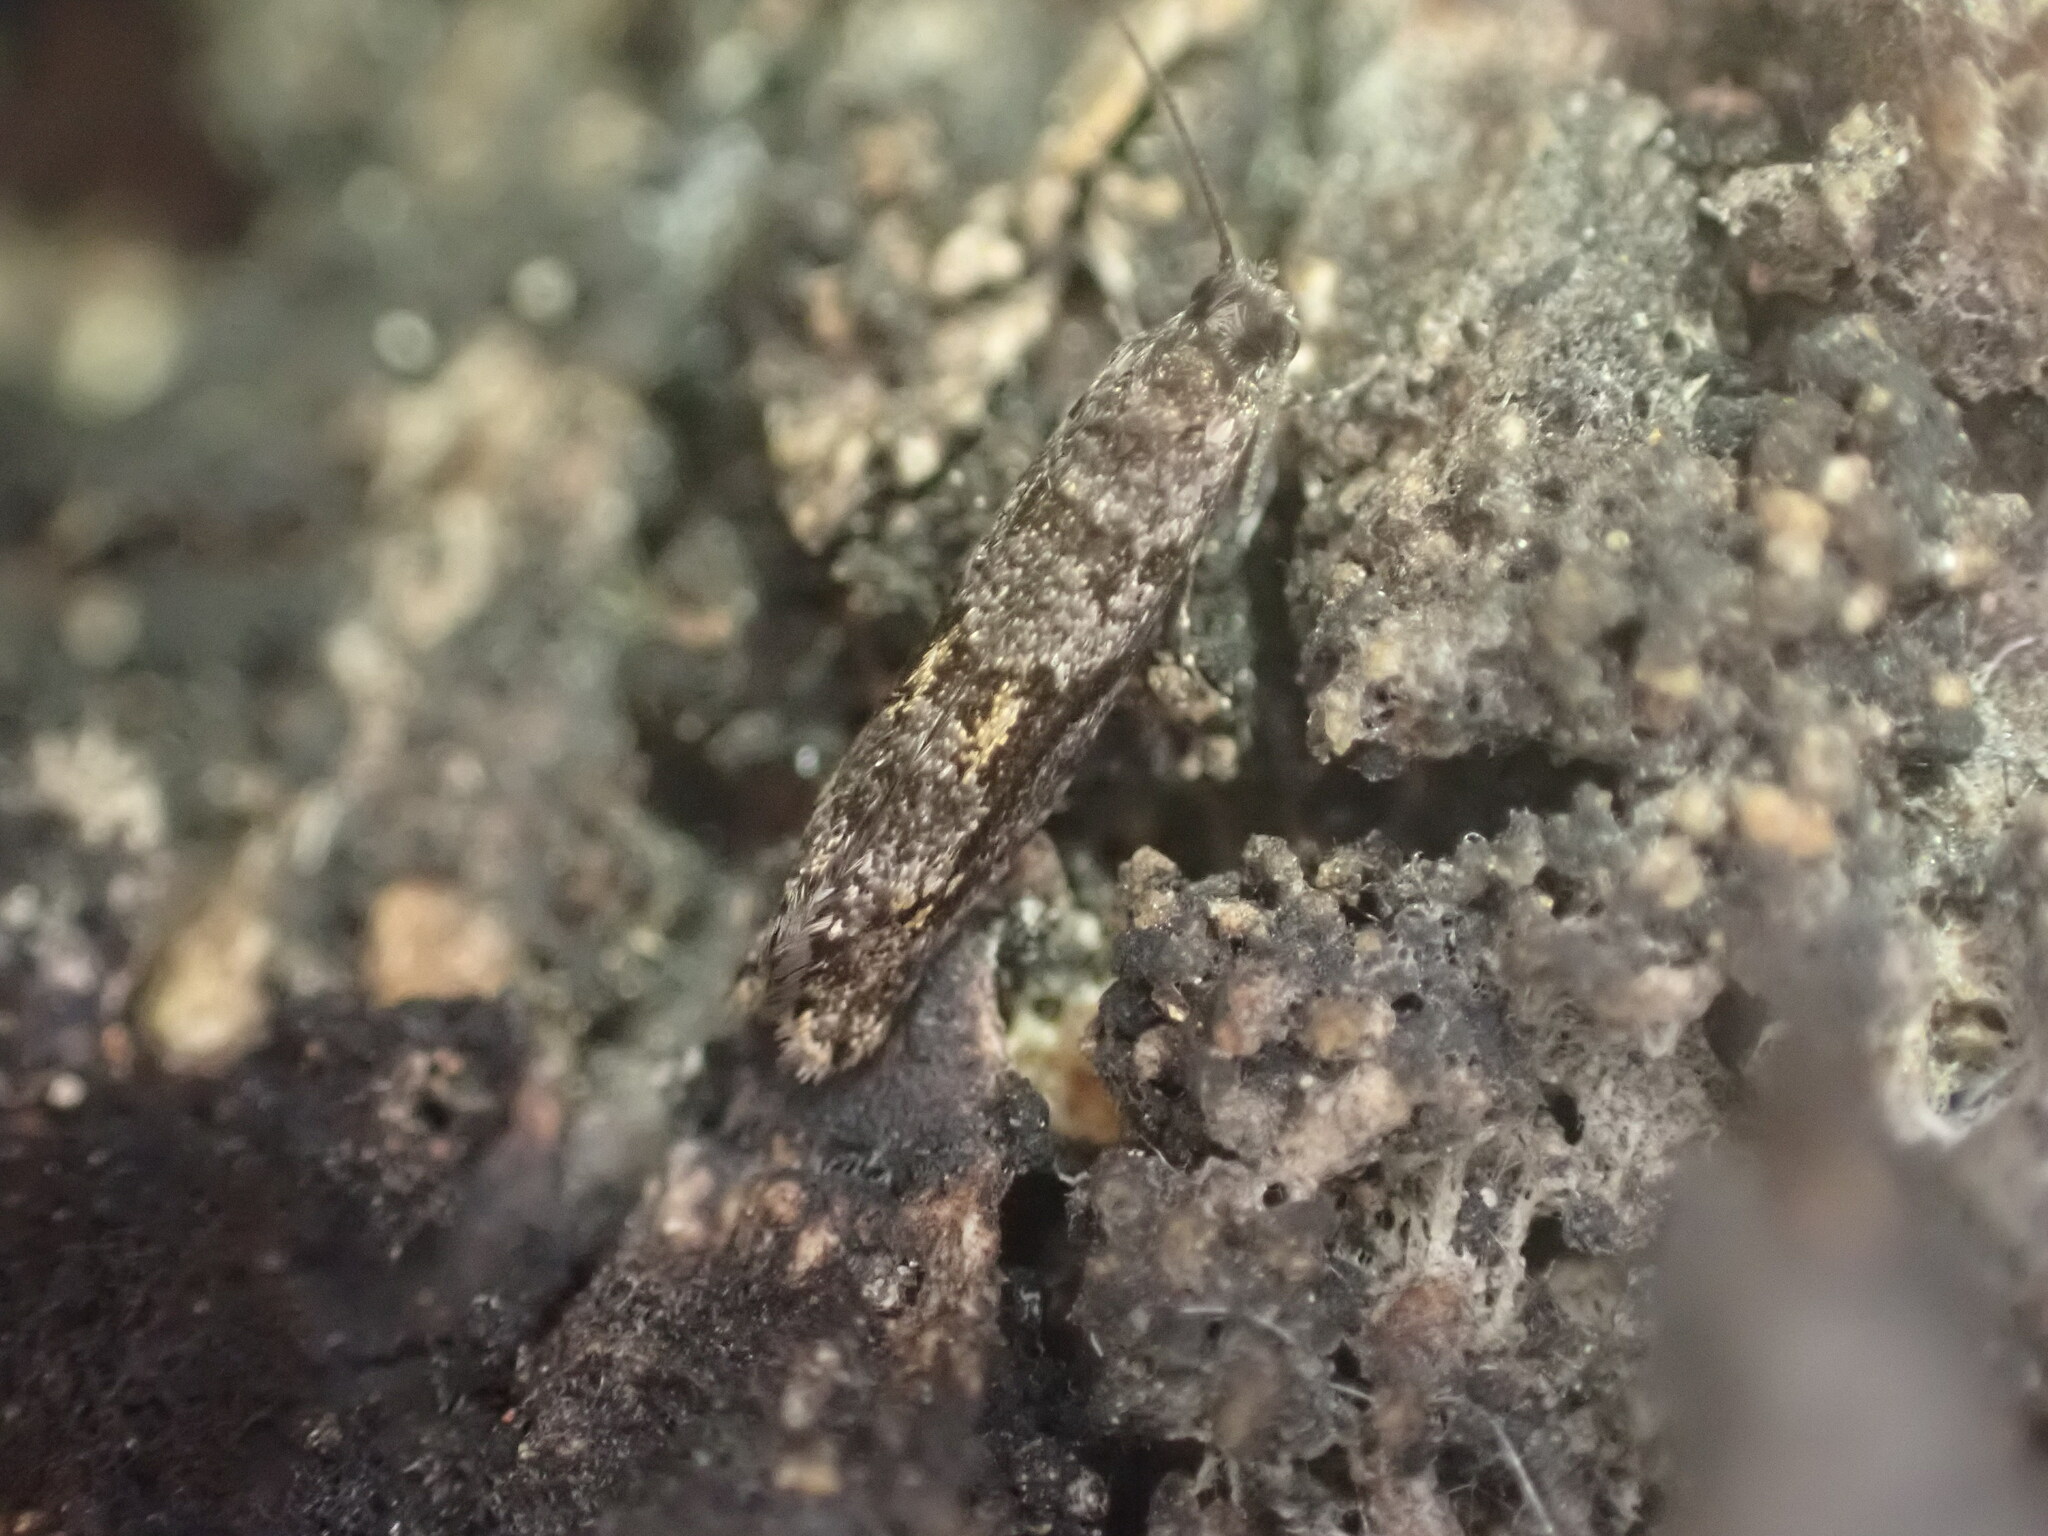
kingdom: Animalia
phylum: Arthropoda
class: Insecta
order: Lepidoptera
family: Tineidae
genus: Archyala
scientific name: Archyala pentazyga
